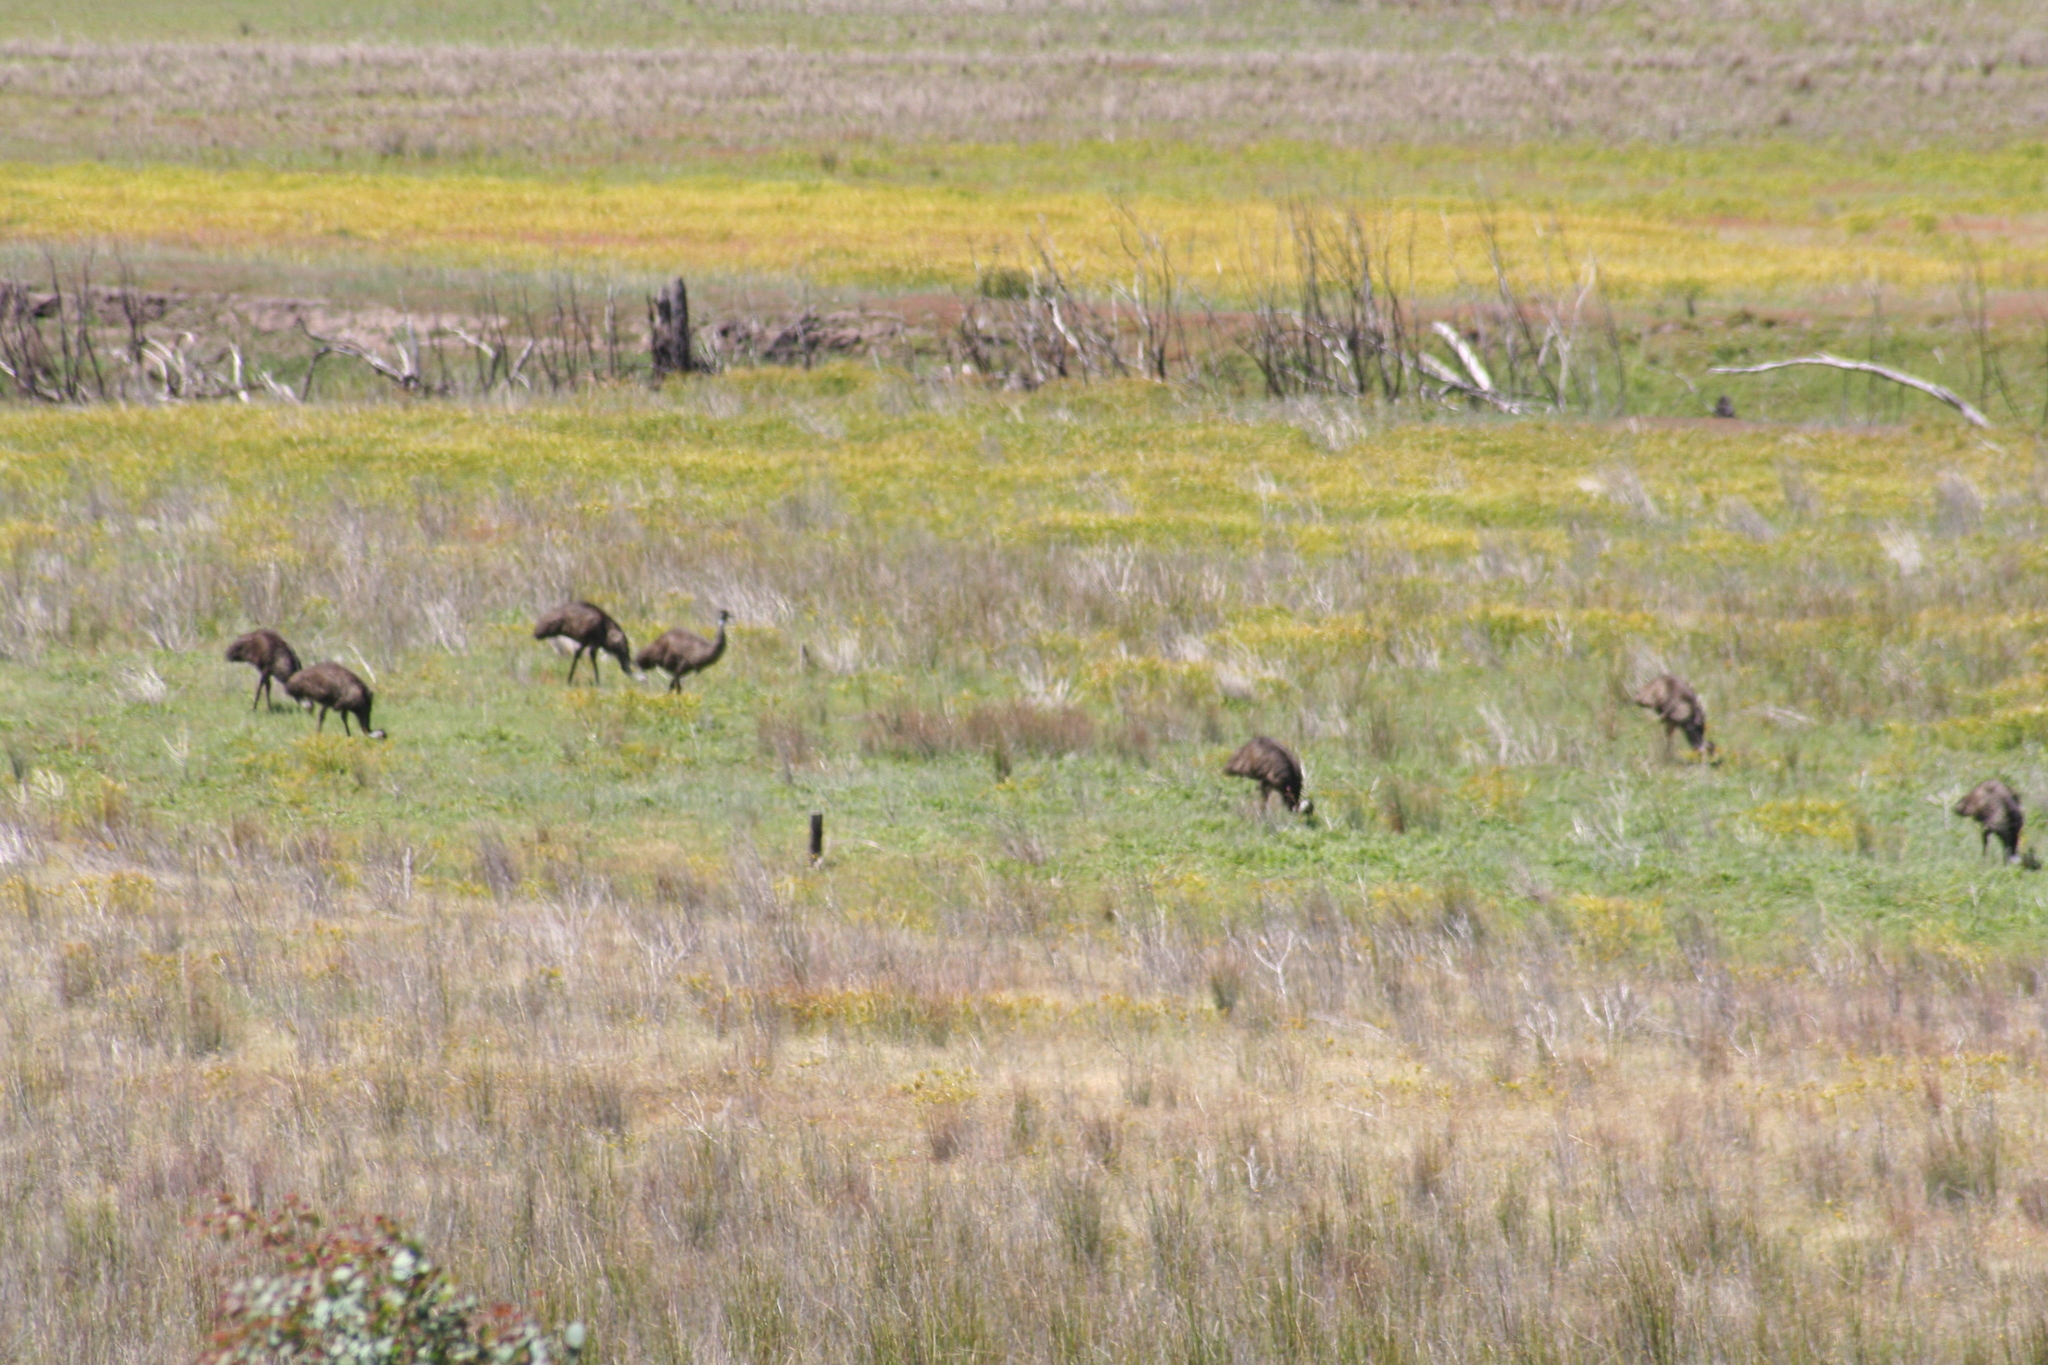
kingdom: Animalia
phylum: Chordata
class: Aves
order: Casuariiformes
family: Dromaiidae
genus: Dromaius
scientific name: Dromaius novaehollandiae
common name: Emu
